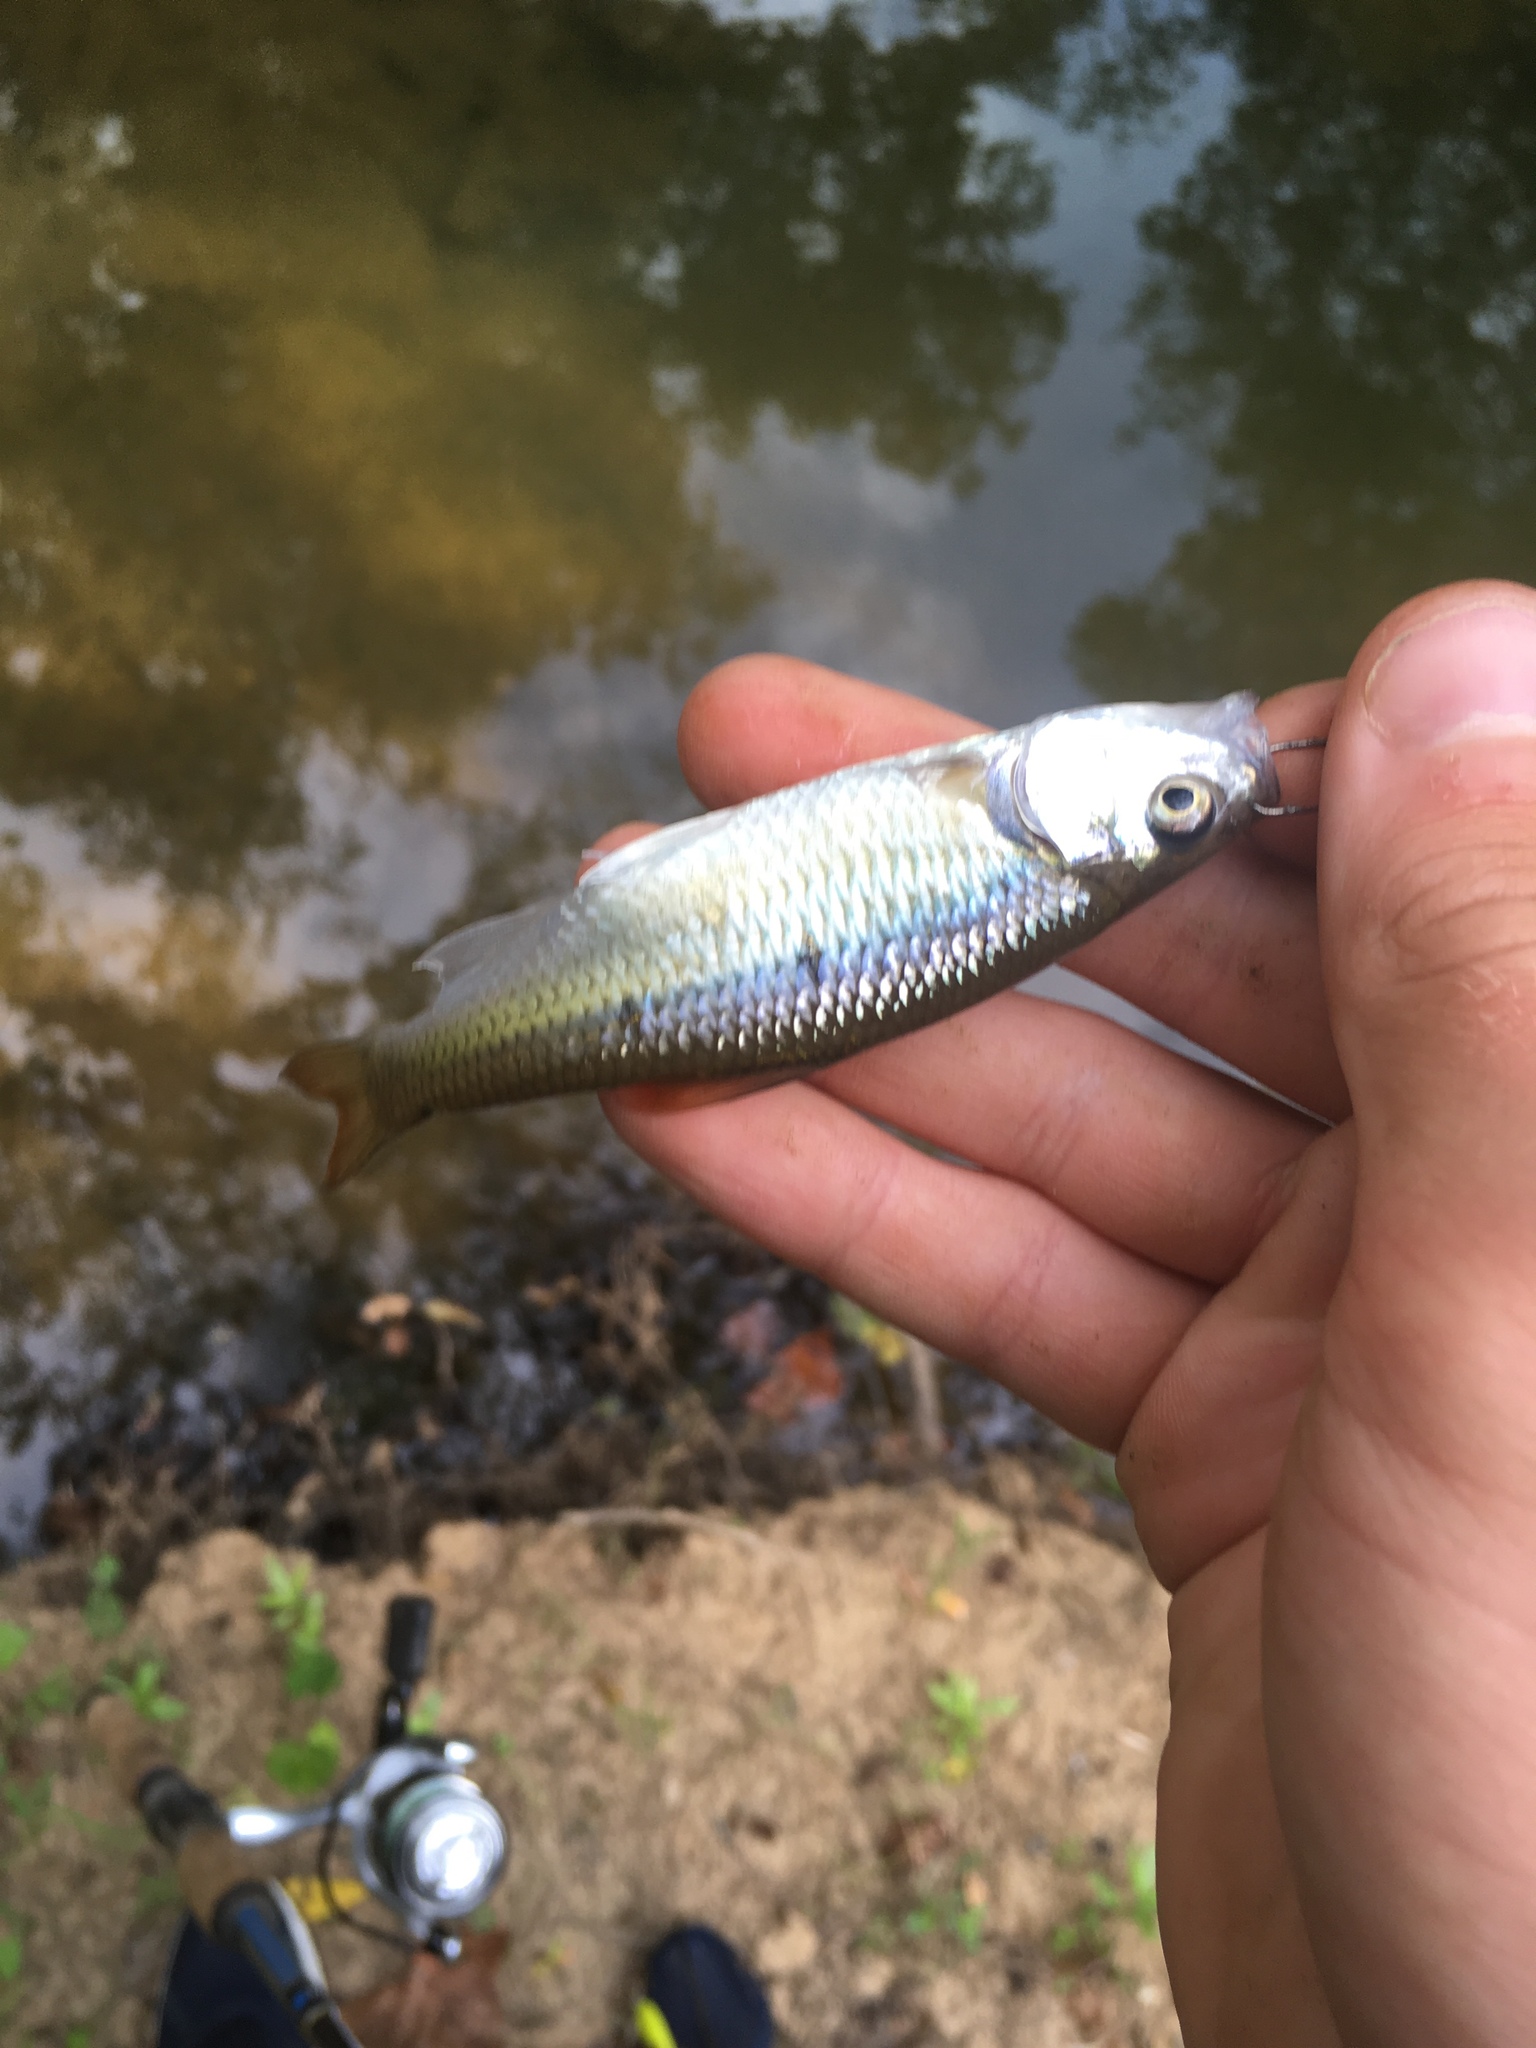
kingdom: Animalia
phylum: Chordata
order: Cypriniformes
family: Cyprinidae
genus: Luxilus
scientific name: Luxilus albeolus
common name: White shiner
